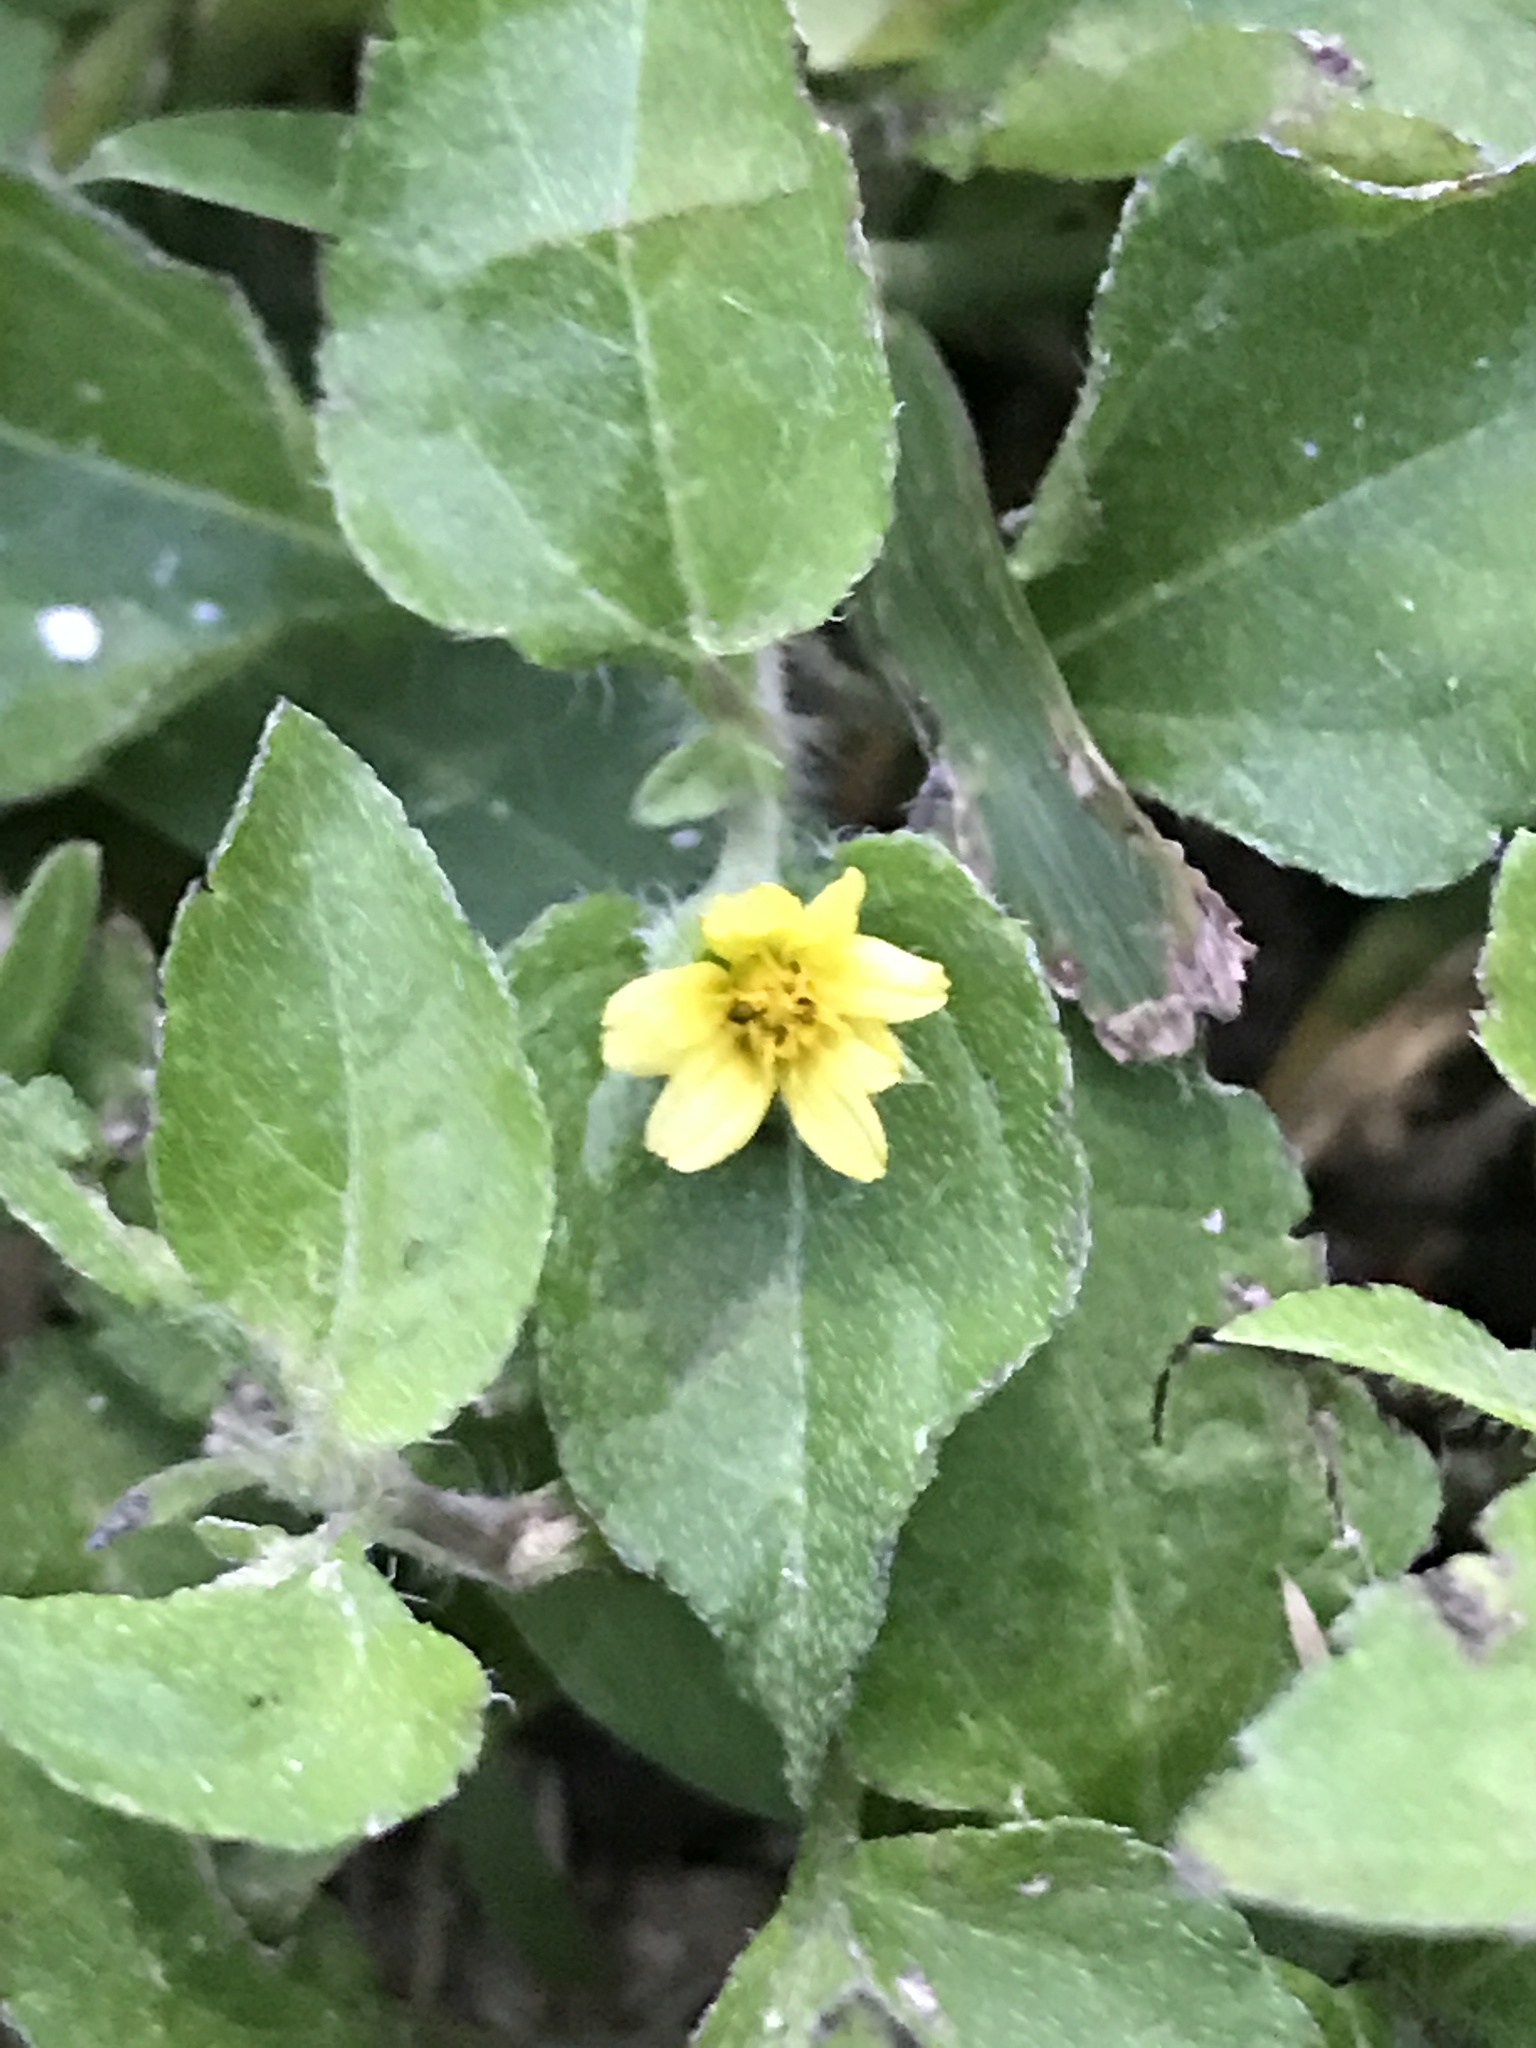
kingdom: Plantae
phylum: Tracheophyta
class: Magnoliopsida
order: Asterales
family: Asteraceae
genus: Calyptocarpus
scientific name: Calyptocarpus vialis
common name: Straggler daisy
